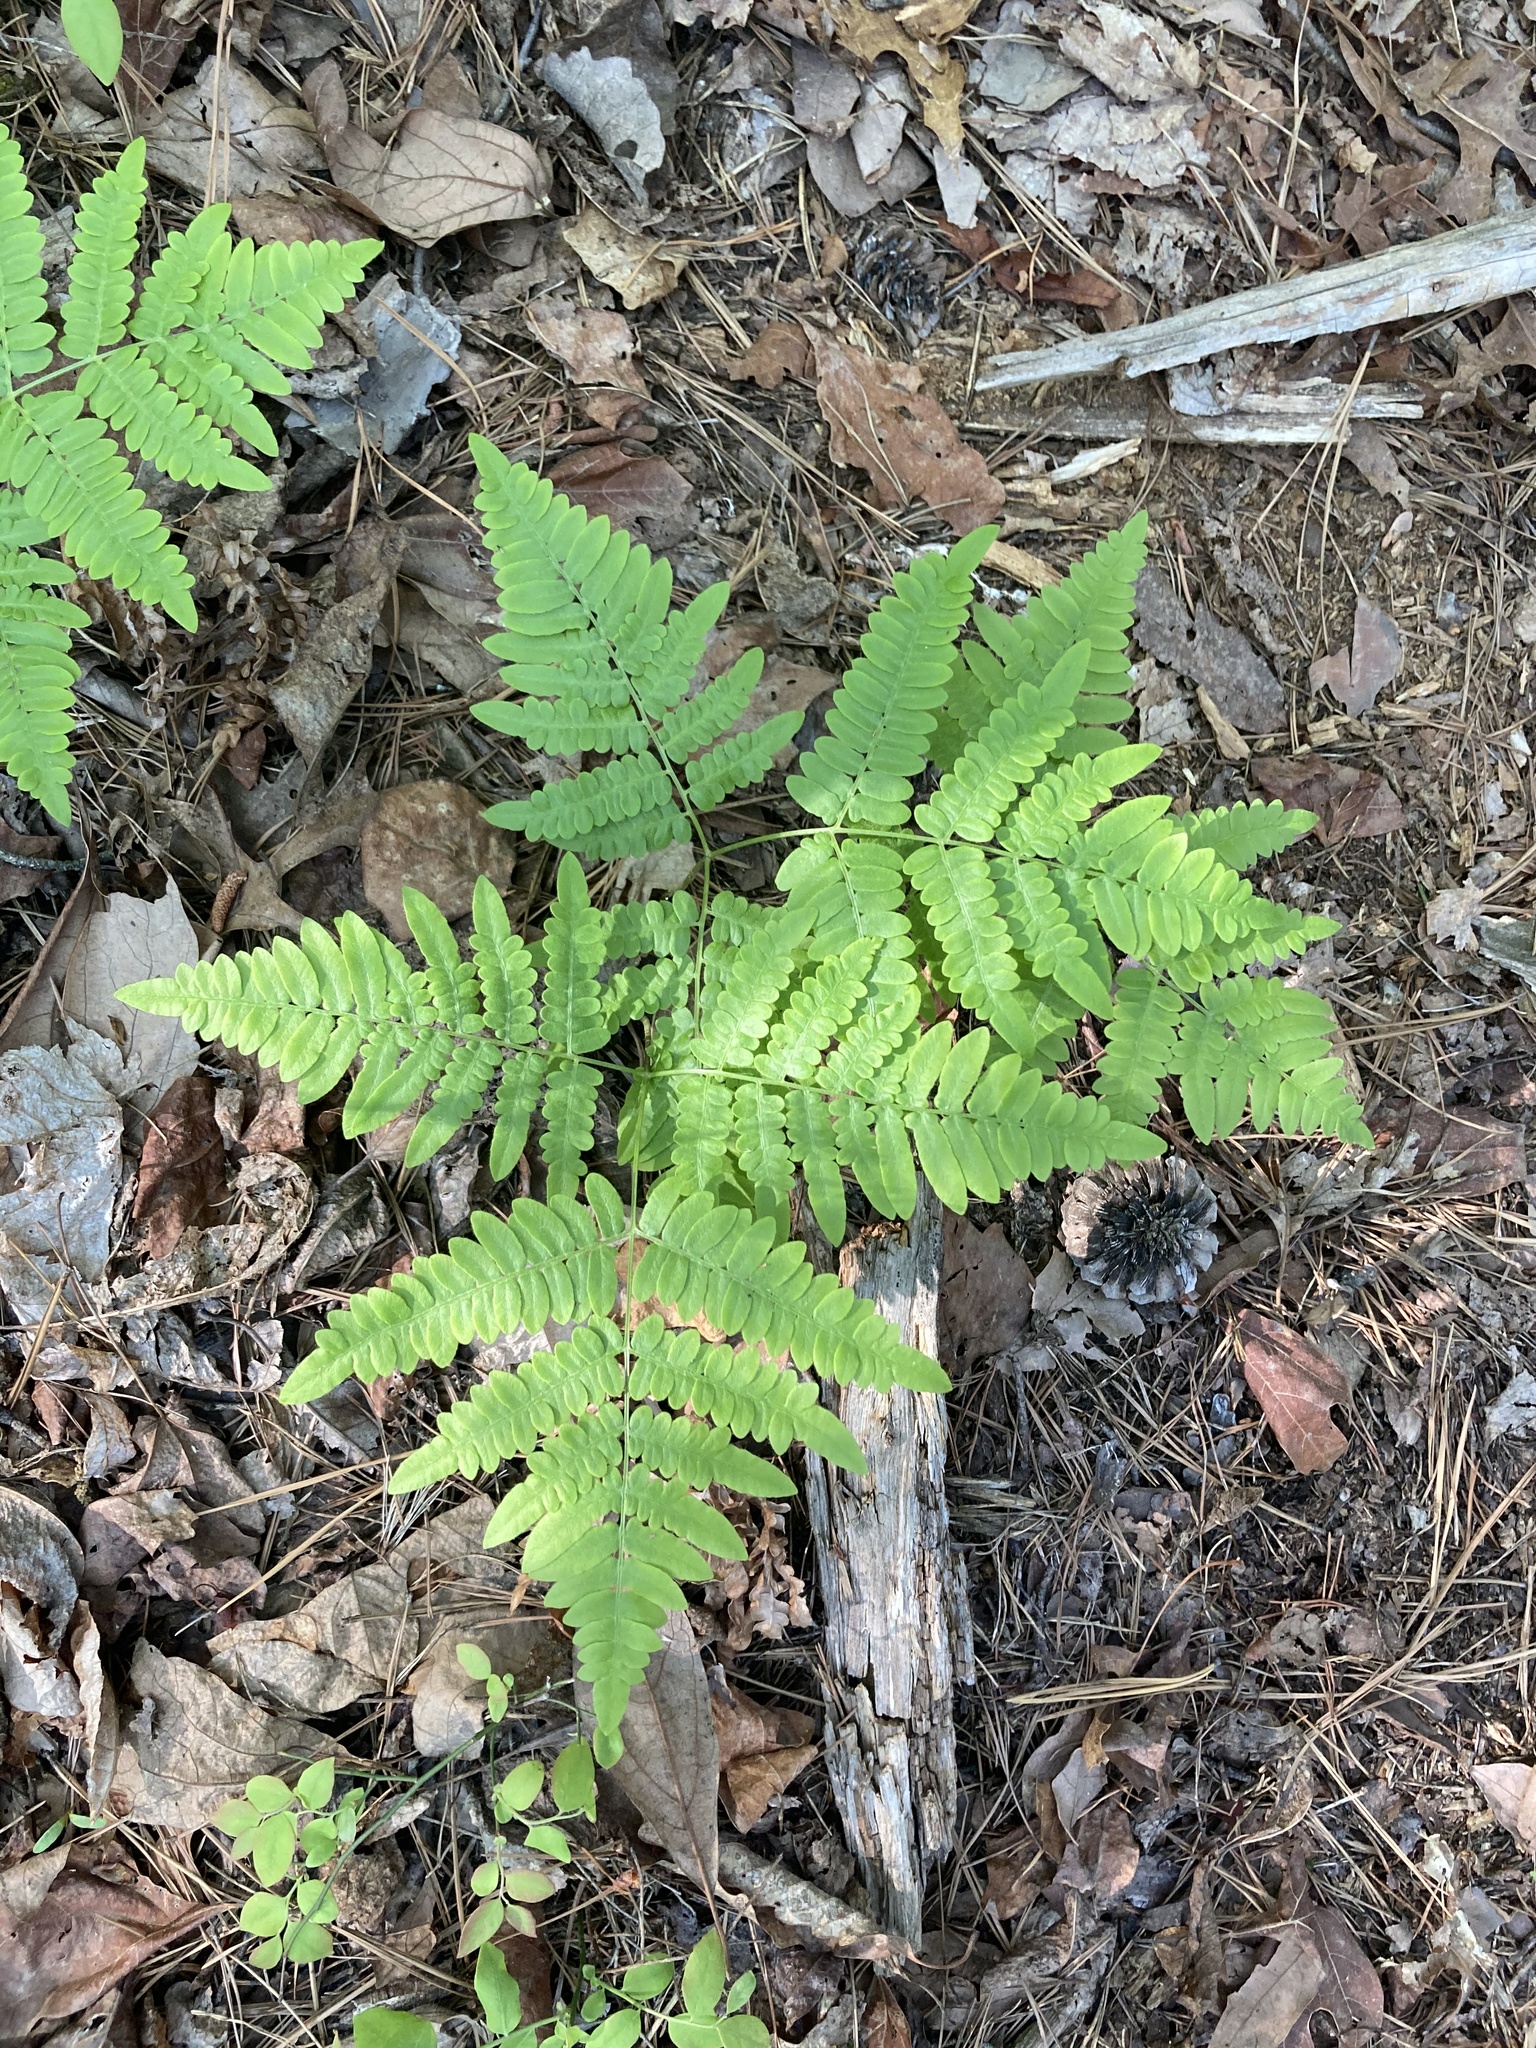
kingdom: Plantae
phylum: Tracheophyta
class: Polypodiopsida
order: Polypodiales
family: Dennstaedtiaceae
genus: Pteridium
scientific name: Pteridium aquilinum
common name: Bracken
